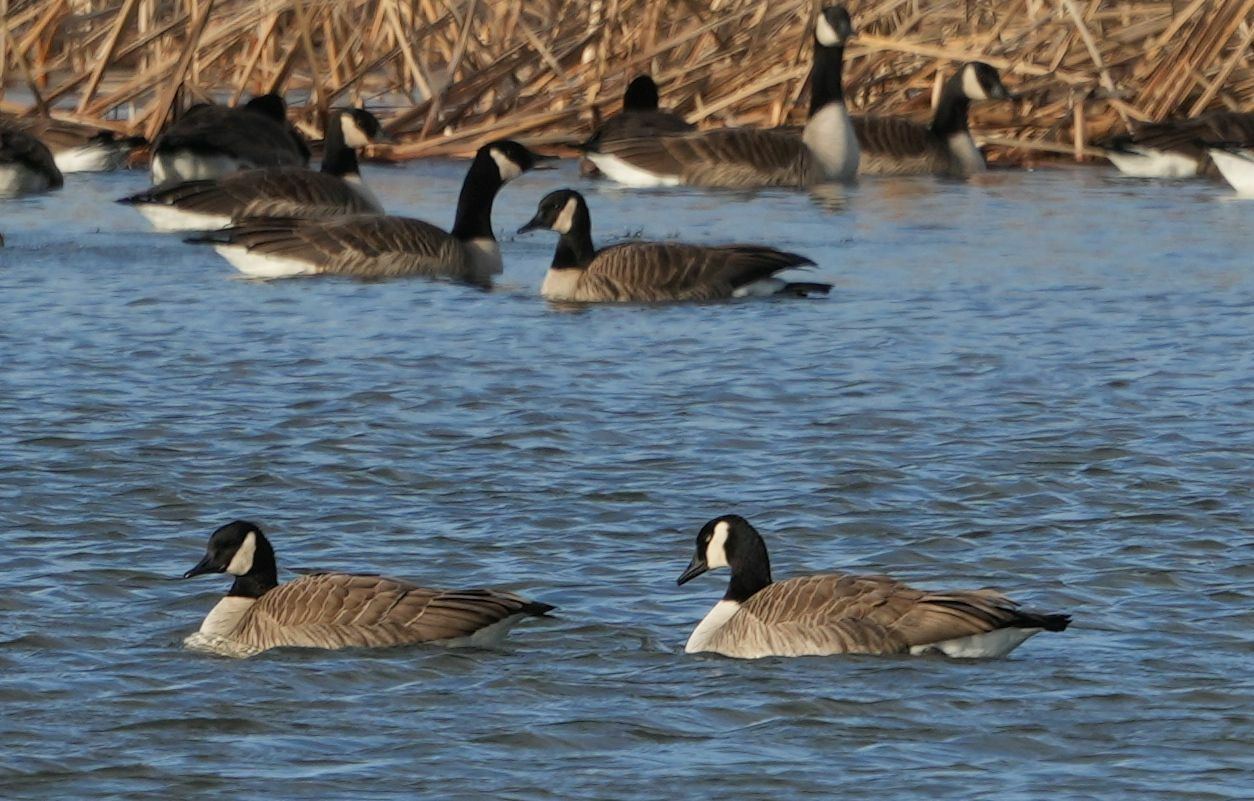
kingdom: Animalia
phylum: Chordata
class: Aves
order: Anseriformes
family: Anatidae
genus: Branta
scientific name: Branta canadensis
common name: Canada goose
